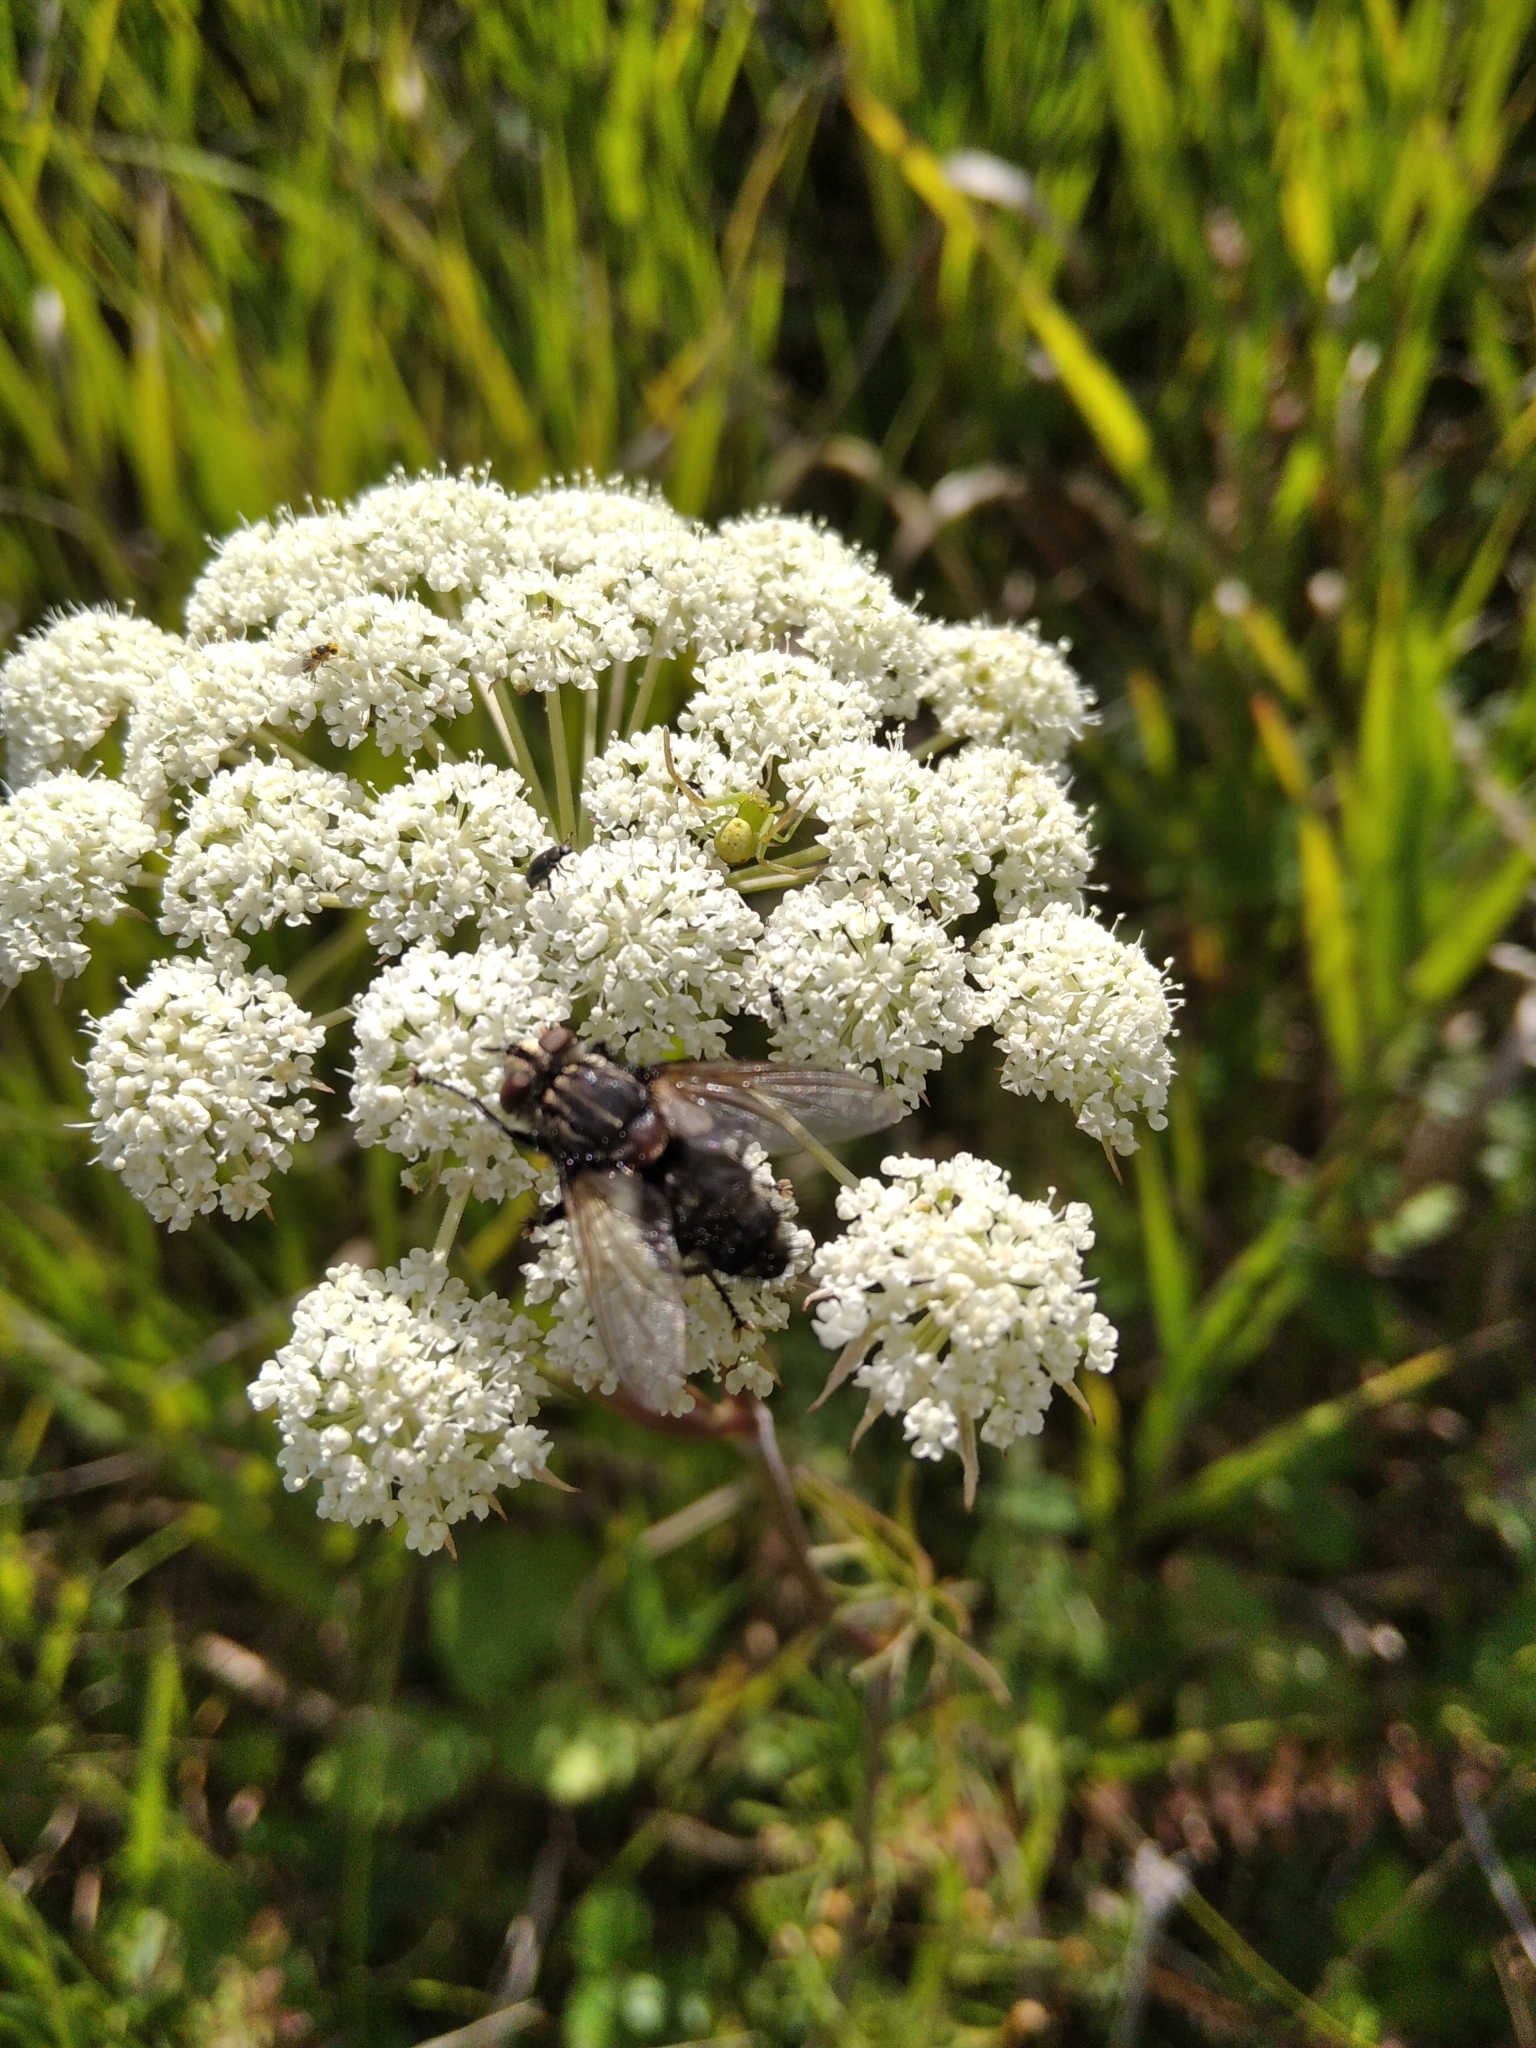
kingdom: Plantae
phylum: Tracheophyta
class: Magnoliopsida
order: Apiales
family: Apiaceae
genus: Angelica
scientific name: Angelica sylvestris
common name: Wild angelica
